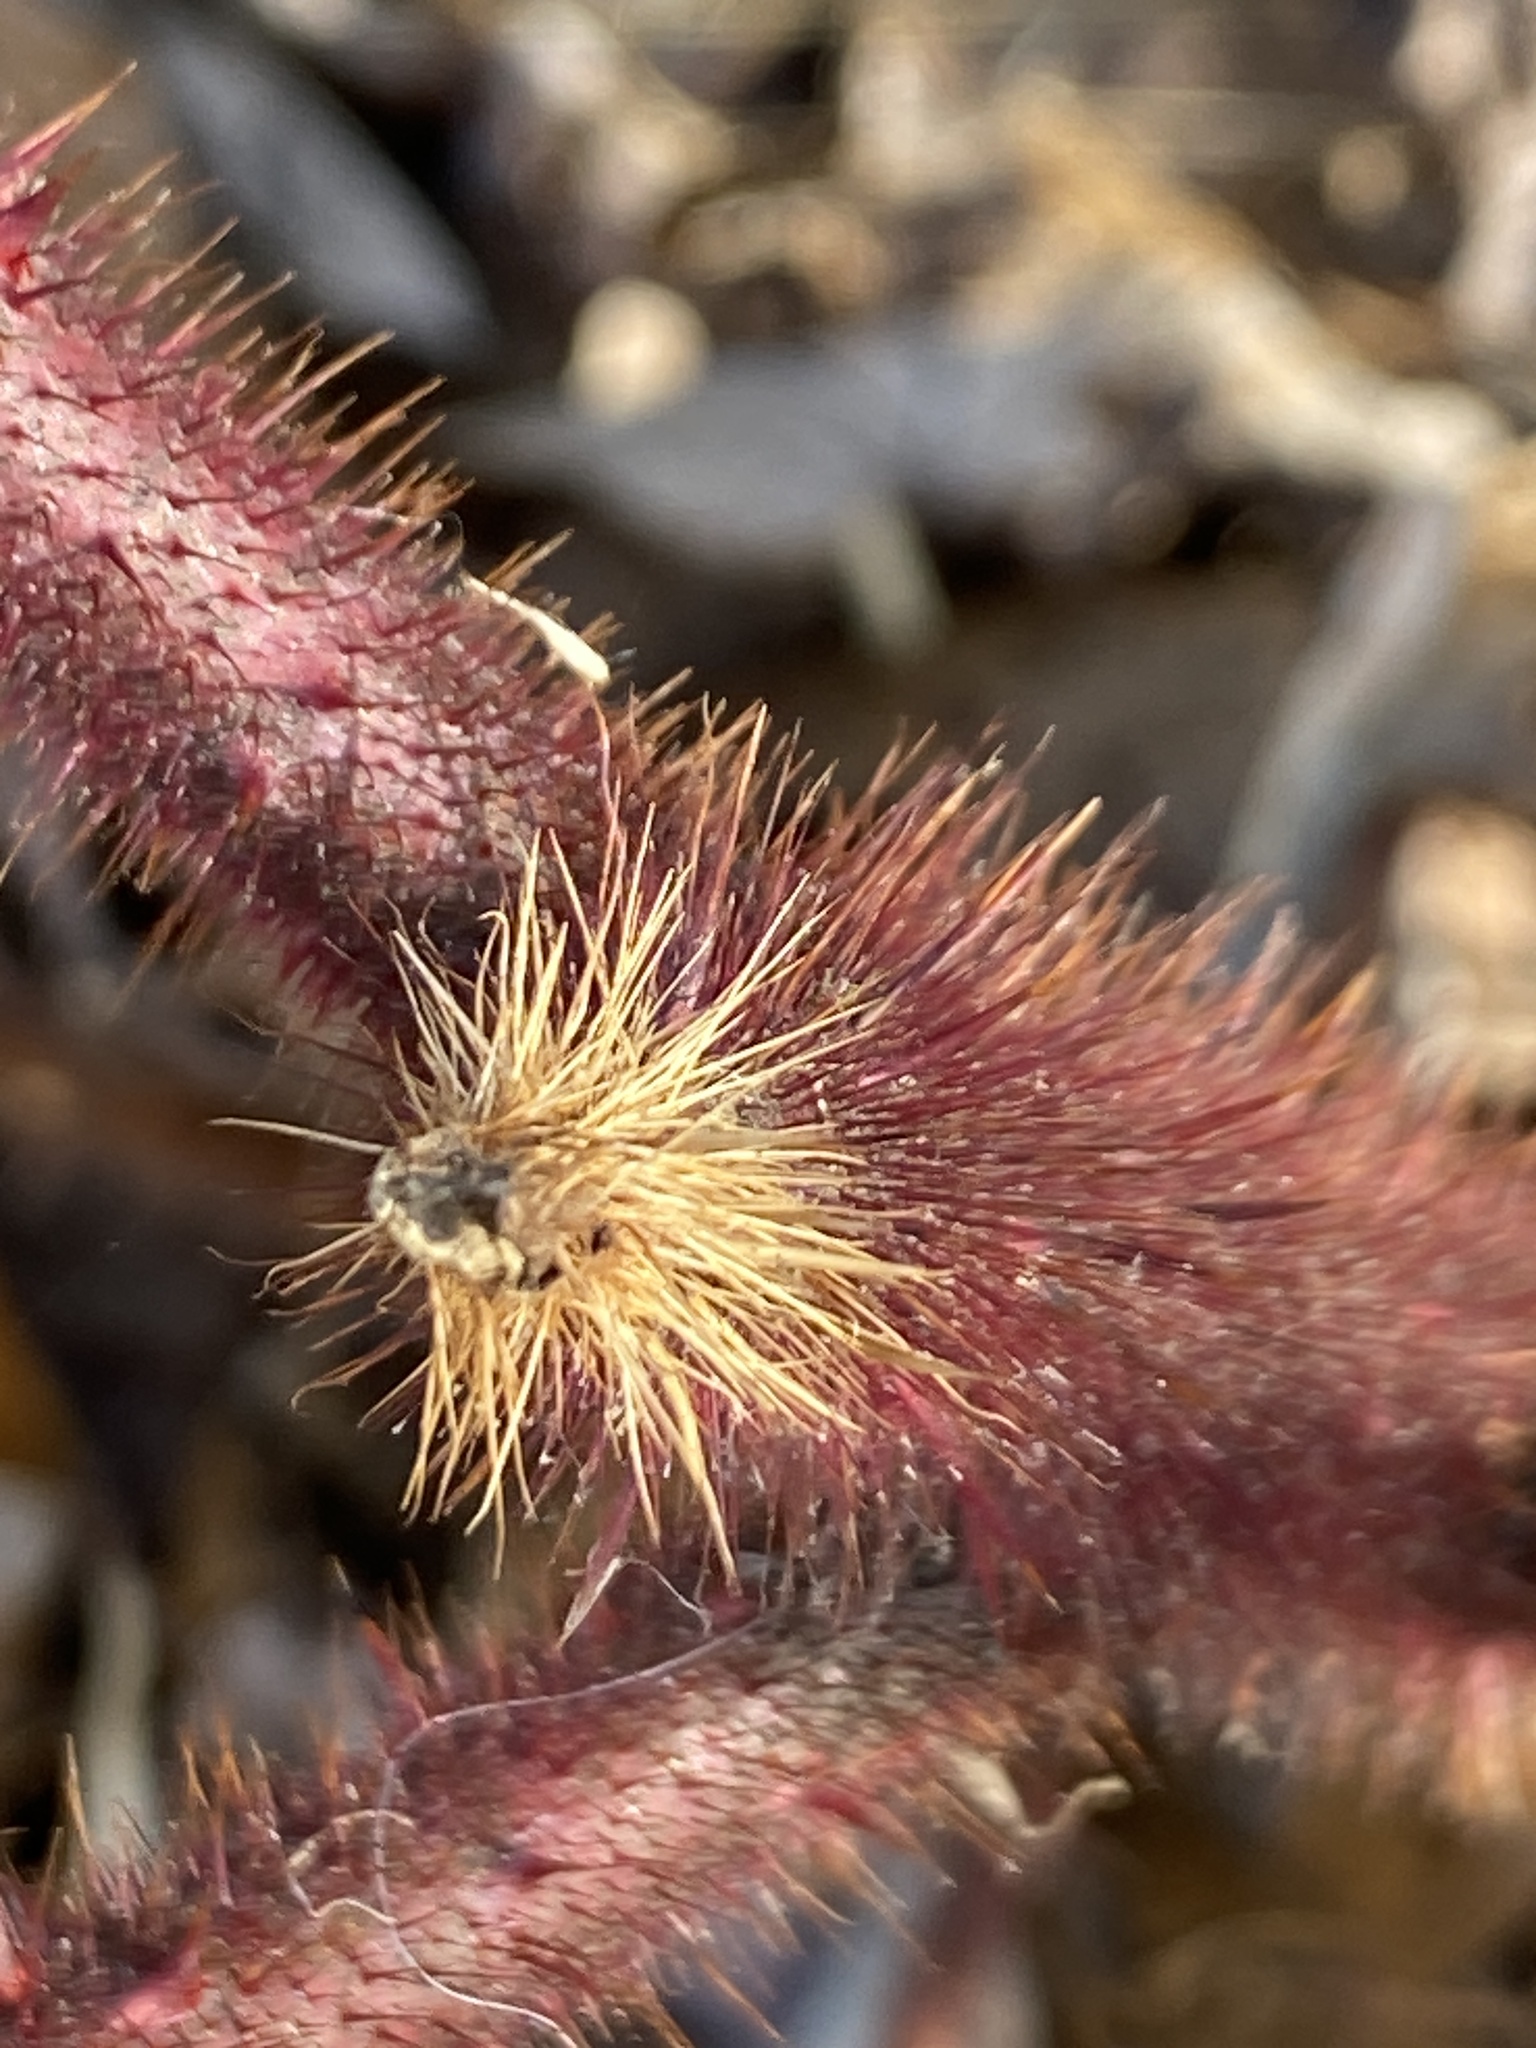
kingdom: Plantae
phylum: Tracheophyta
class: Magnoliopsida
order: Rosales
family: Rosaceae
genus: Rubus
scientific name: Rubus phoenicolasius
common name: Japanese wineberry
